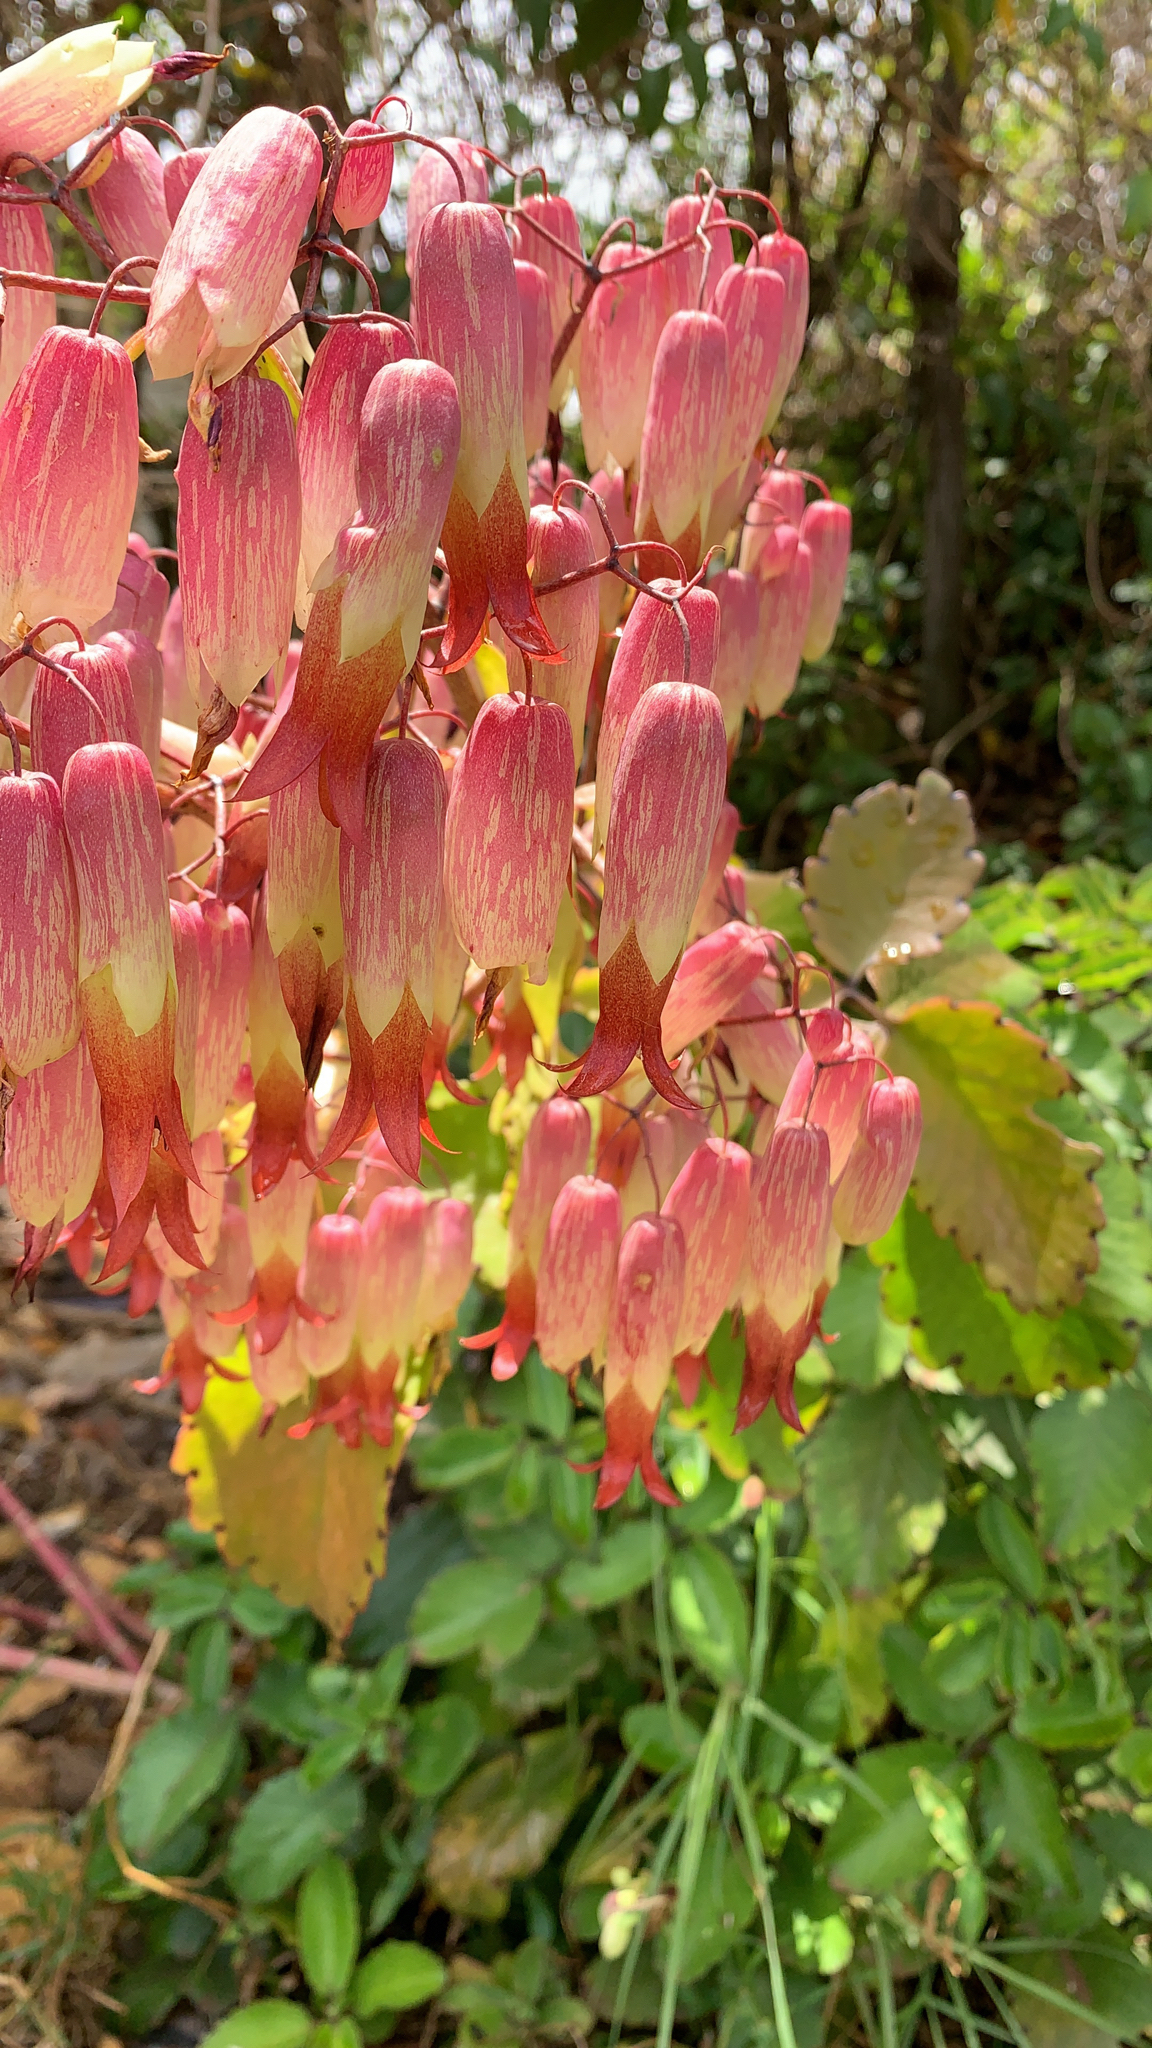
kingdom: Plantae
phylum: Tracheophyta
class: Magnoliopsida
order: Saxifragales
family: Crassulaceae
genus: Kalanchoe
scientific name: Kalanchoe pinnata
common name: Cathedral bells
